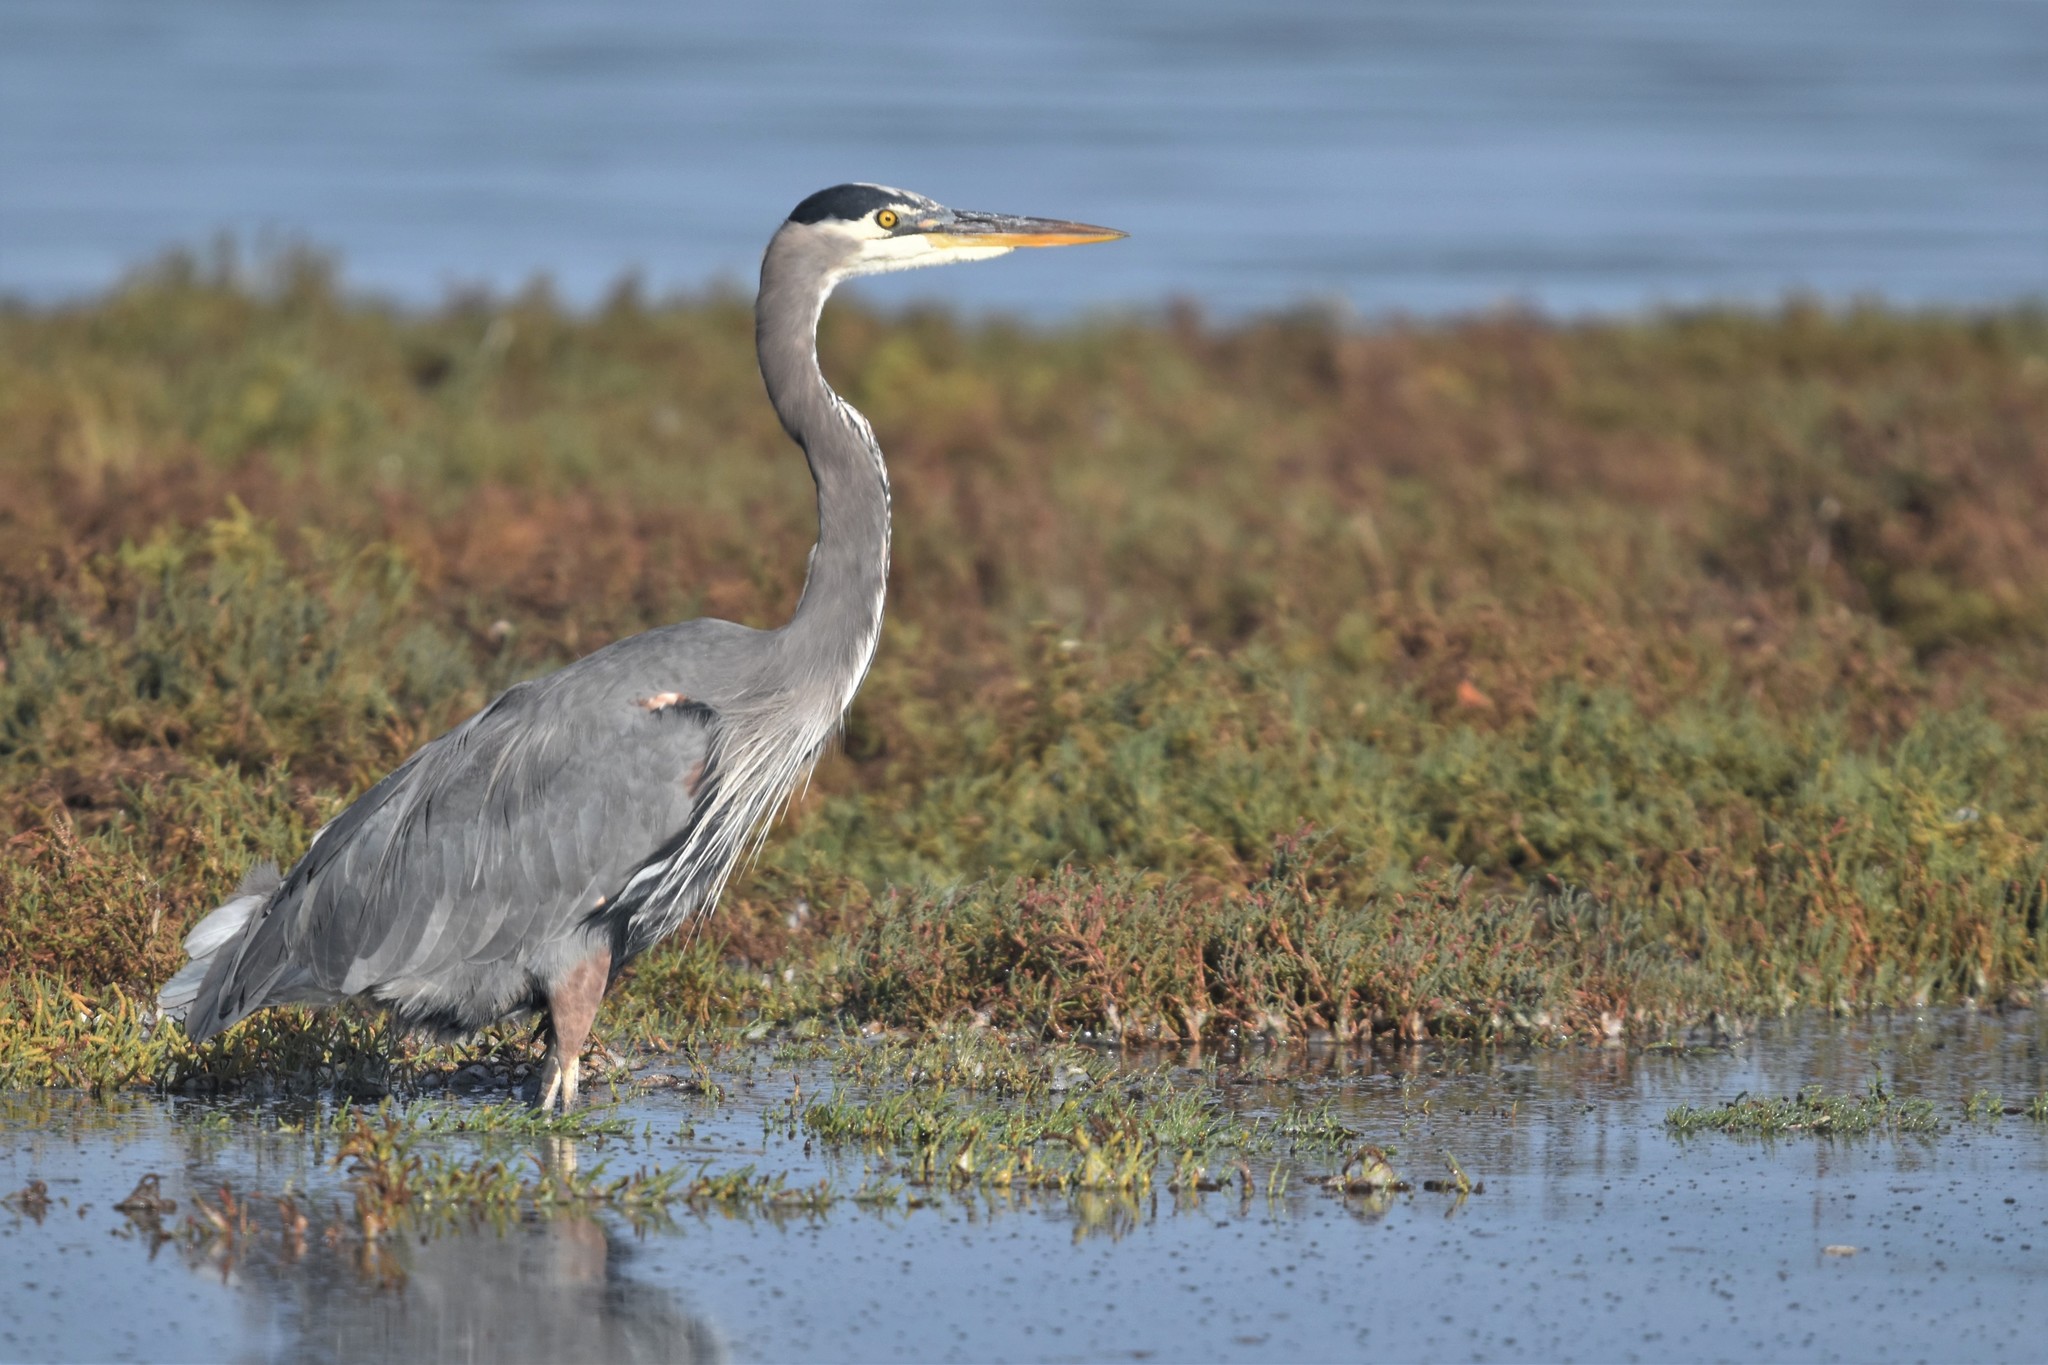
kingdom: Animalia
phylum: Chordata
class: Aves
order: Pelecaniformes
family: Ardeidae
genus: Ardea
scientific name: Ardea herodias
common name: Great blue heron
